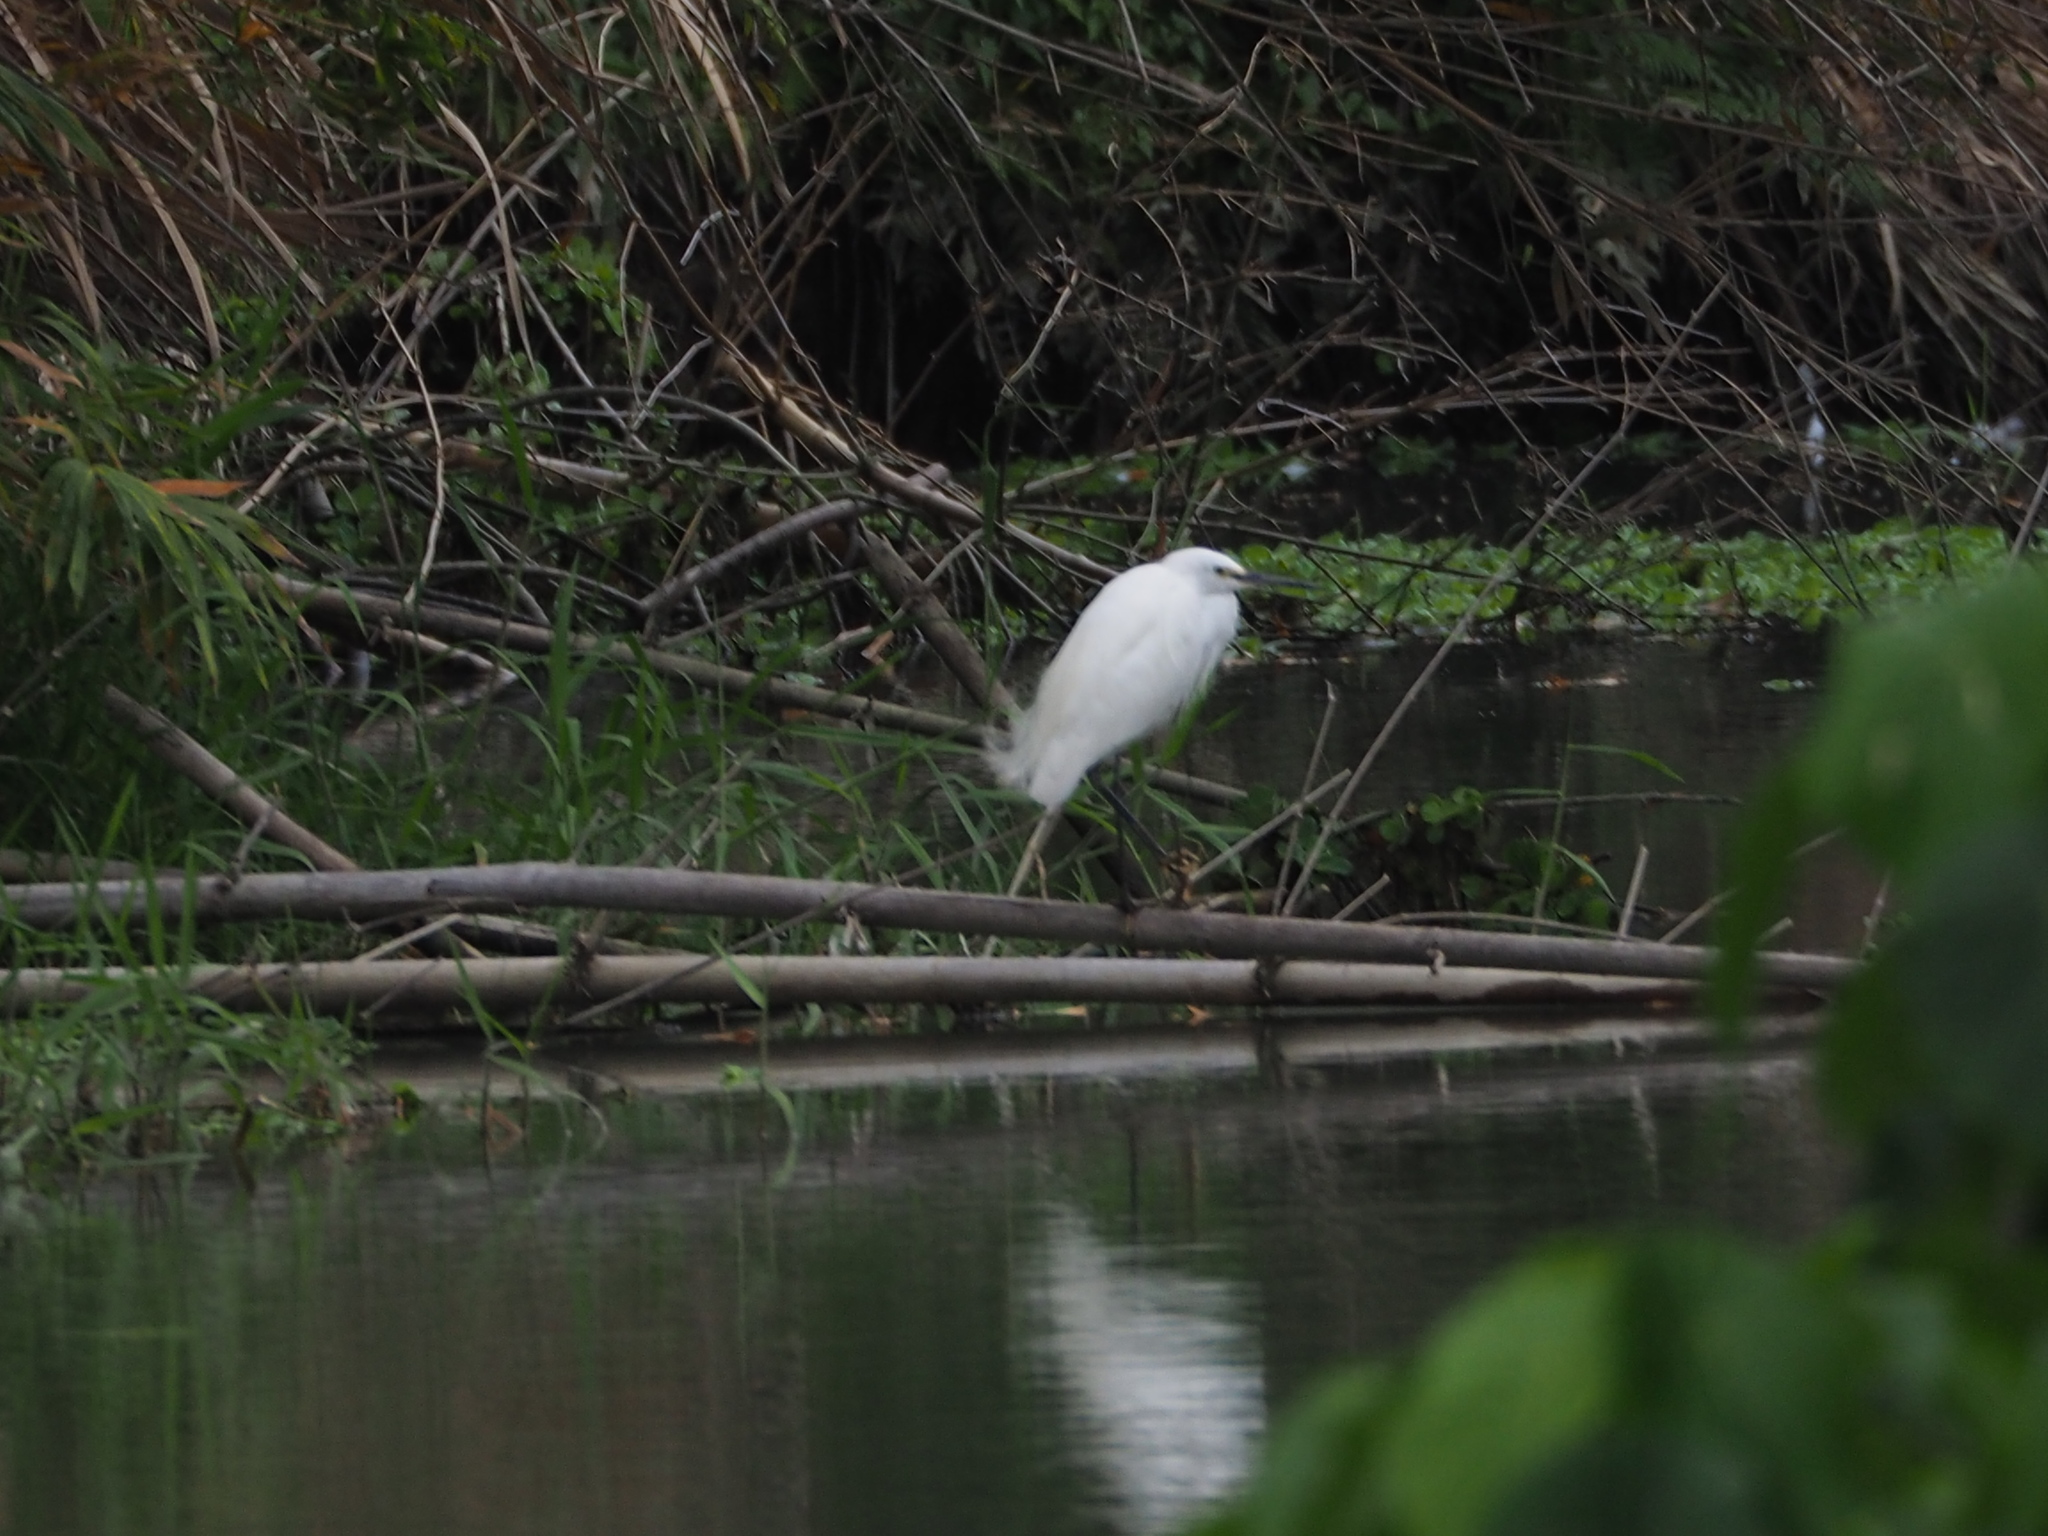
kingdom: Animalia
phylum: Chordata
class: Aves
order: Pelecaniformes
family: Ardeidae
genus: Egretta
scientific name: Egretta garzetta
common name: Little egret
